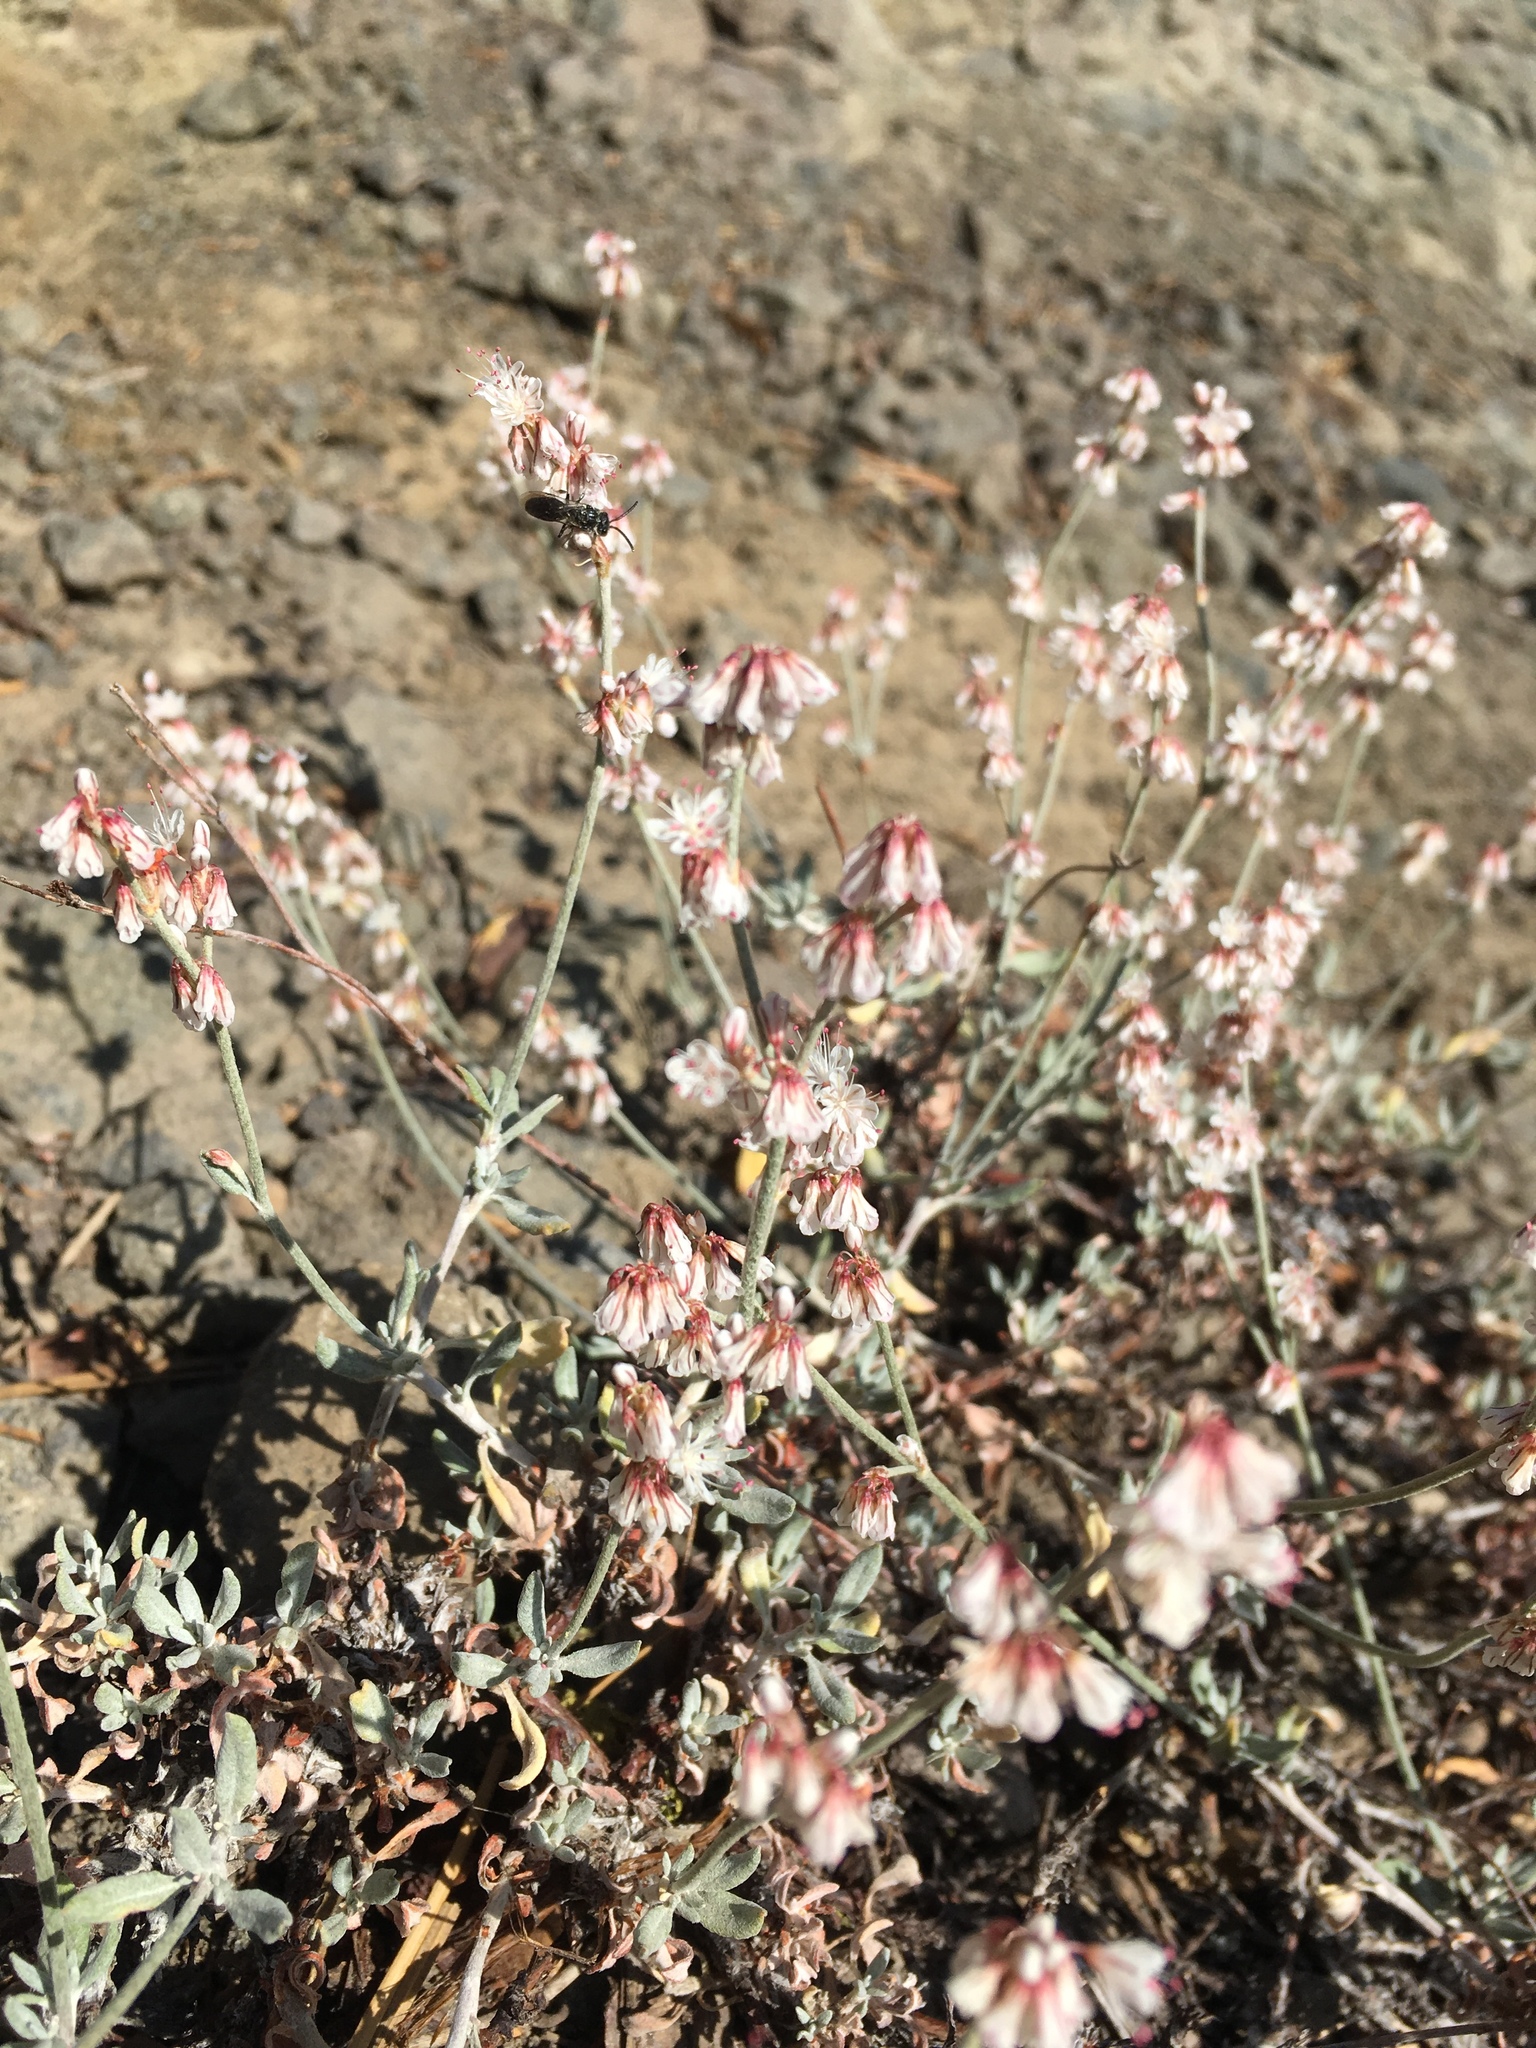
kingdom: Plantae
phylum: Tracheophyta
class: Magnoliopsida
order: Caryophyllales
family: Polygonaceae
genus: Eriogonum
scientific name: Eriogonum wrightii
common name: Bastard-sage
